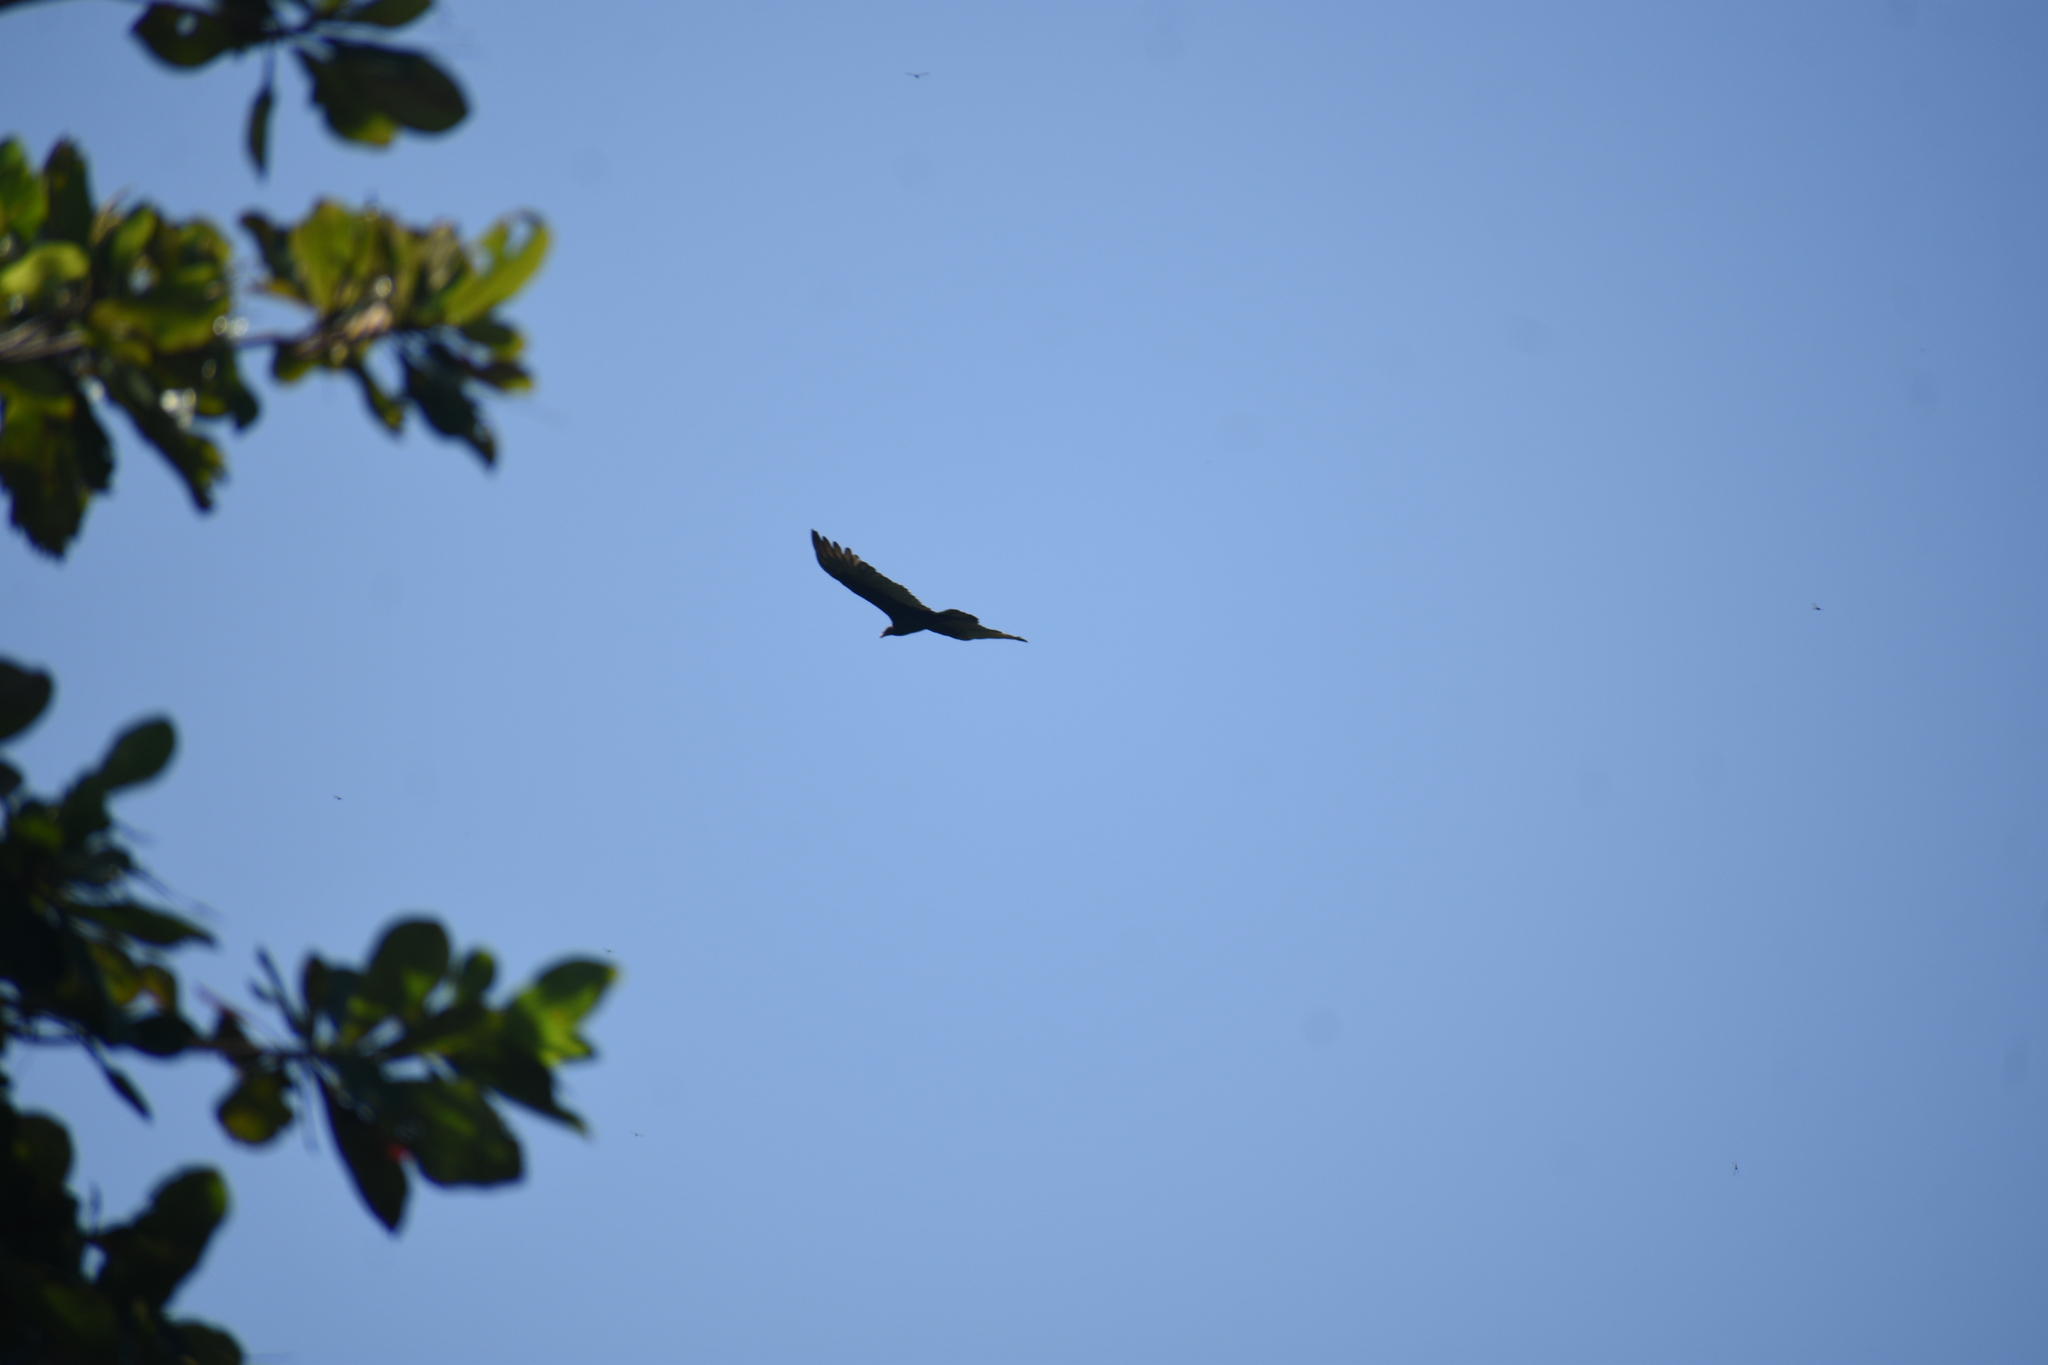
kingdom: Animalia
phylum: Chordata
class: Aves
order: Accipitriformes
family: Cathartidae
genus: Cathartes
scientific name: Cathartes aura
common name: Turkey vulture
